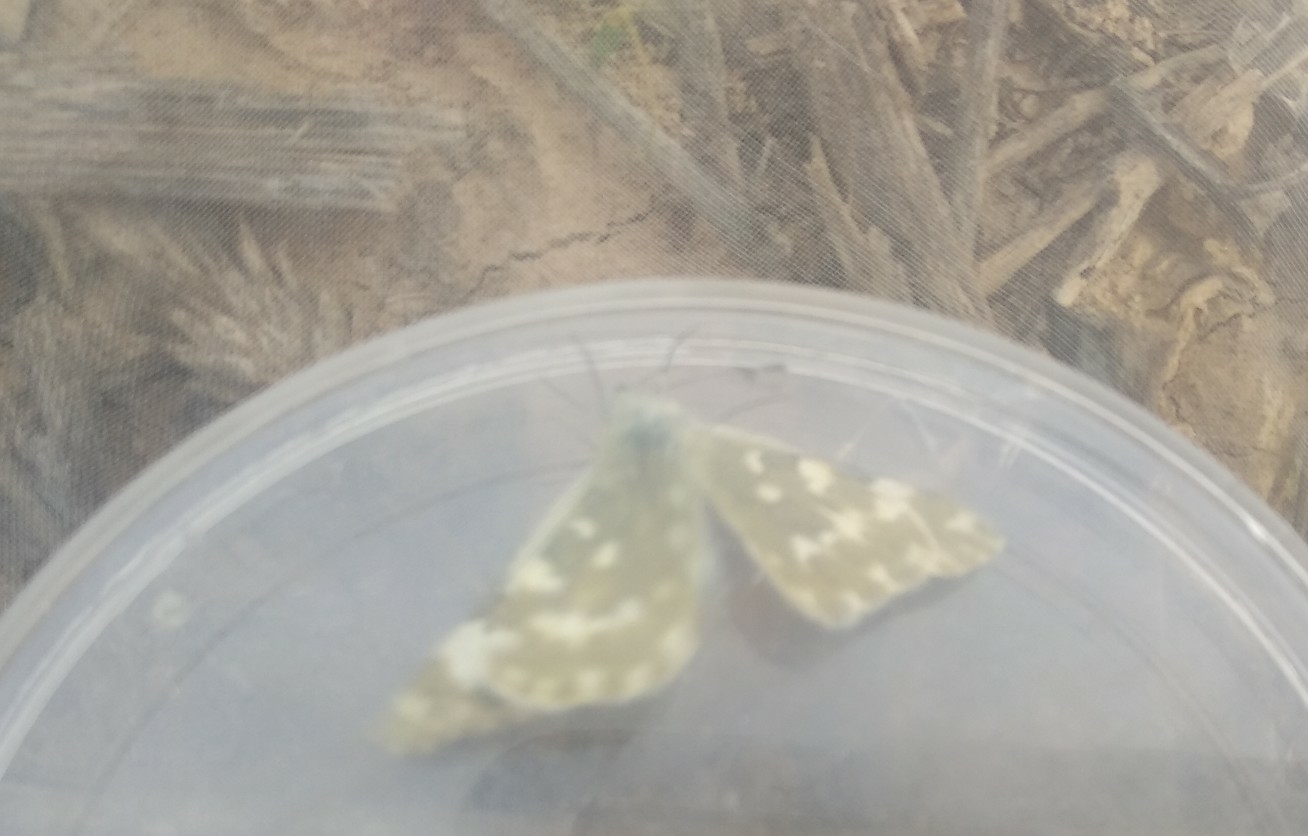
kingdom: Animalia
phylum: Arthropoda
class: Insecta
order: Lepidoptera
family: Pieridae
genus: Pontia
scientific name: Pontia daplidice
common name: Bath white
